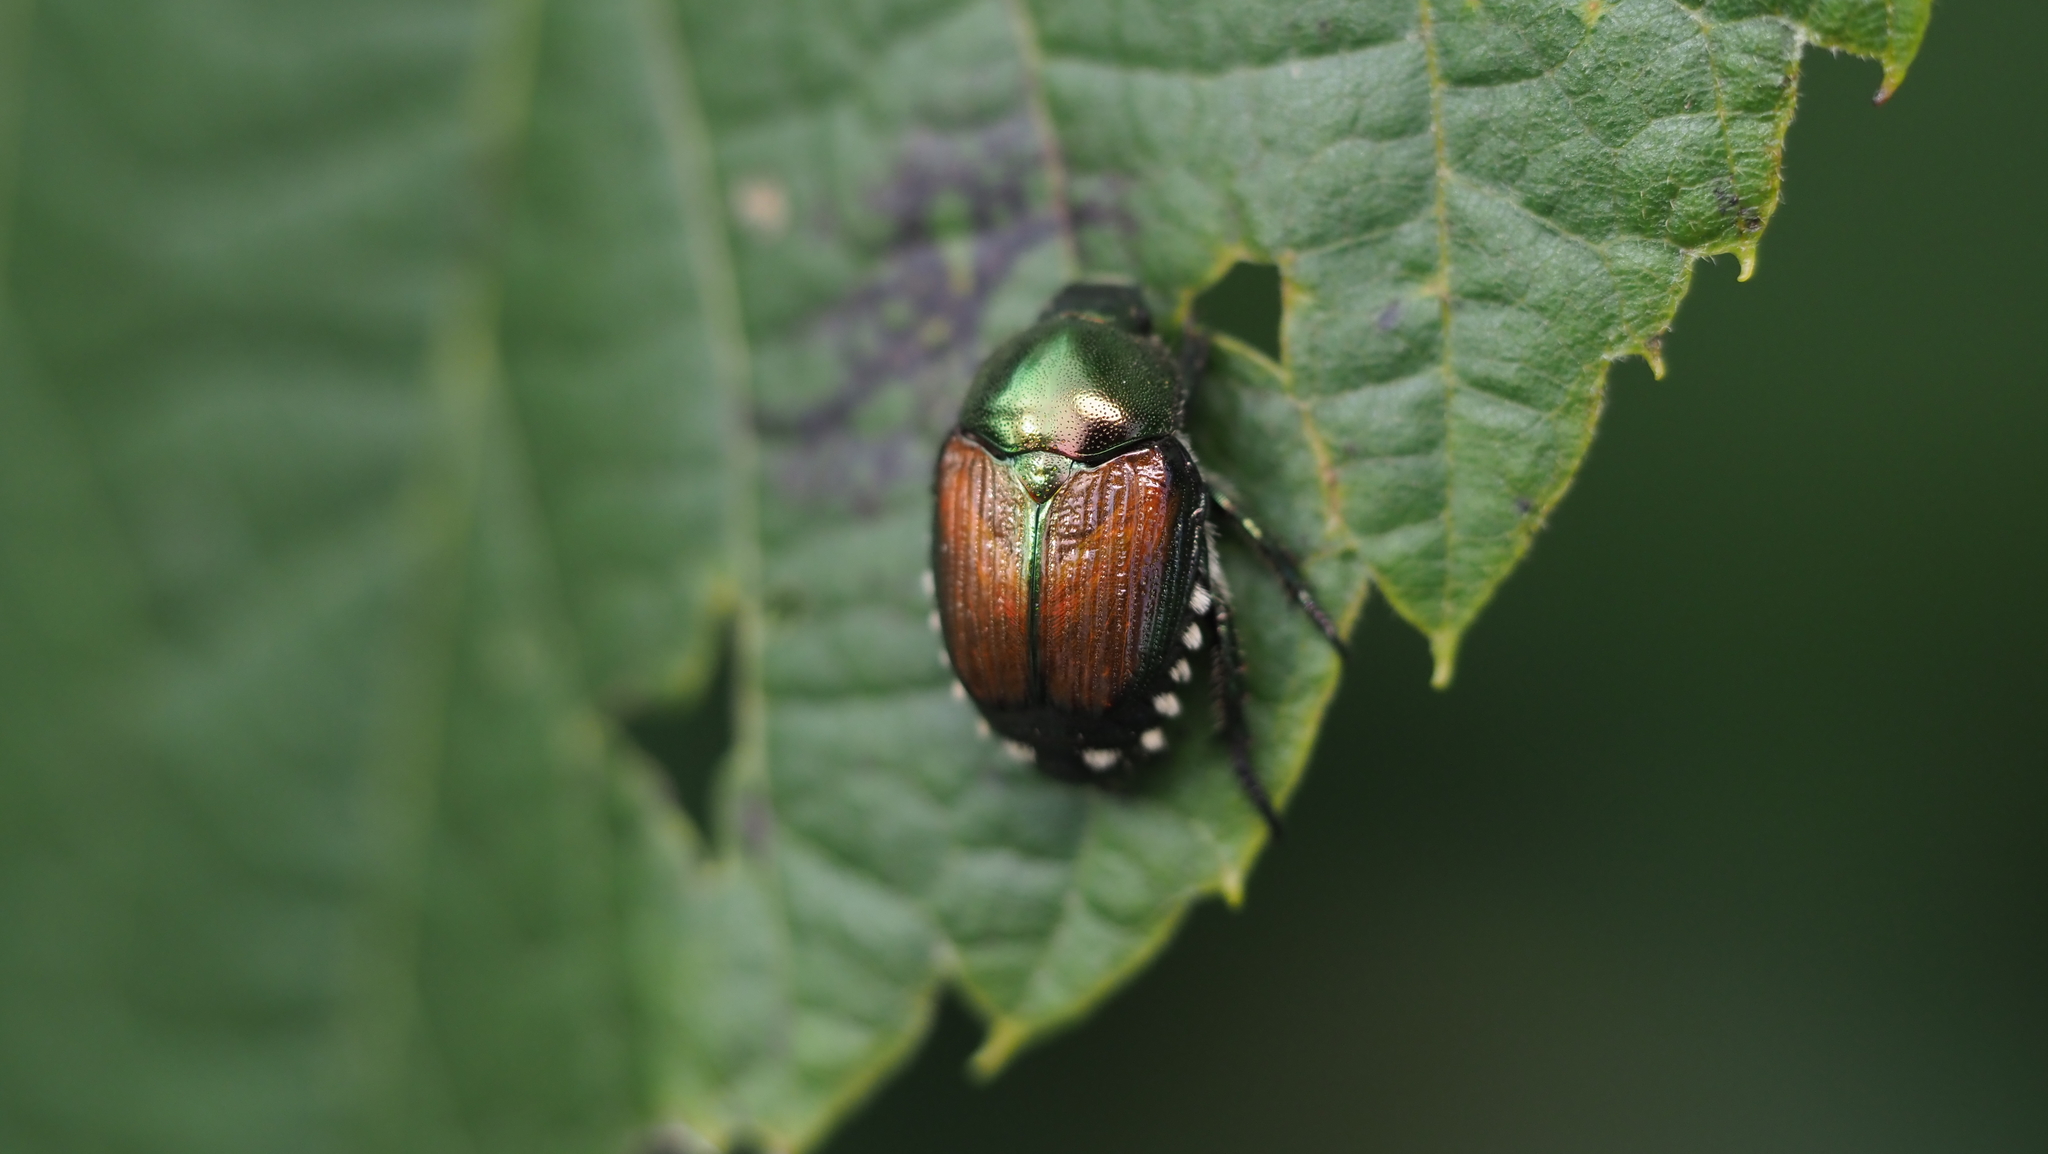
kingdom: Animalia
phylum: Arthropoda
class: Insecta
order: Coleoptera
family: Scarabaeidae
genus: Popillia
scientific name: Popillia japonica
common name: Japanese beetle
